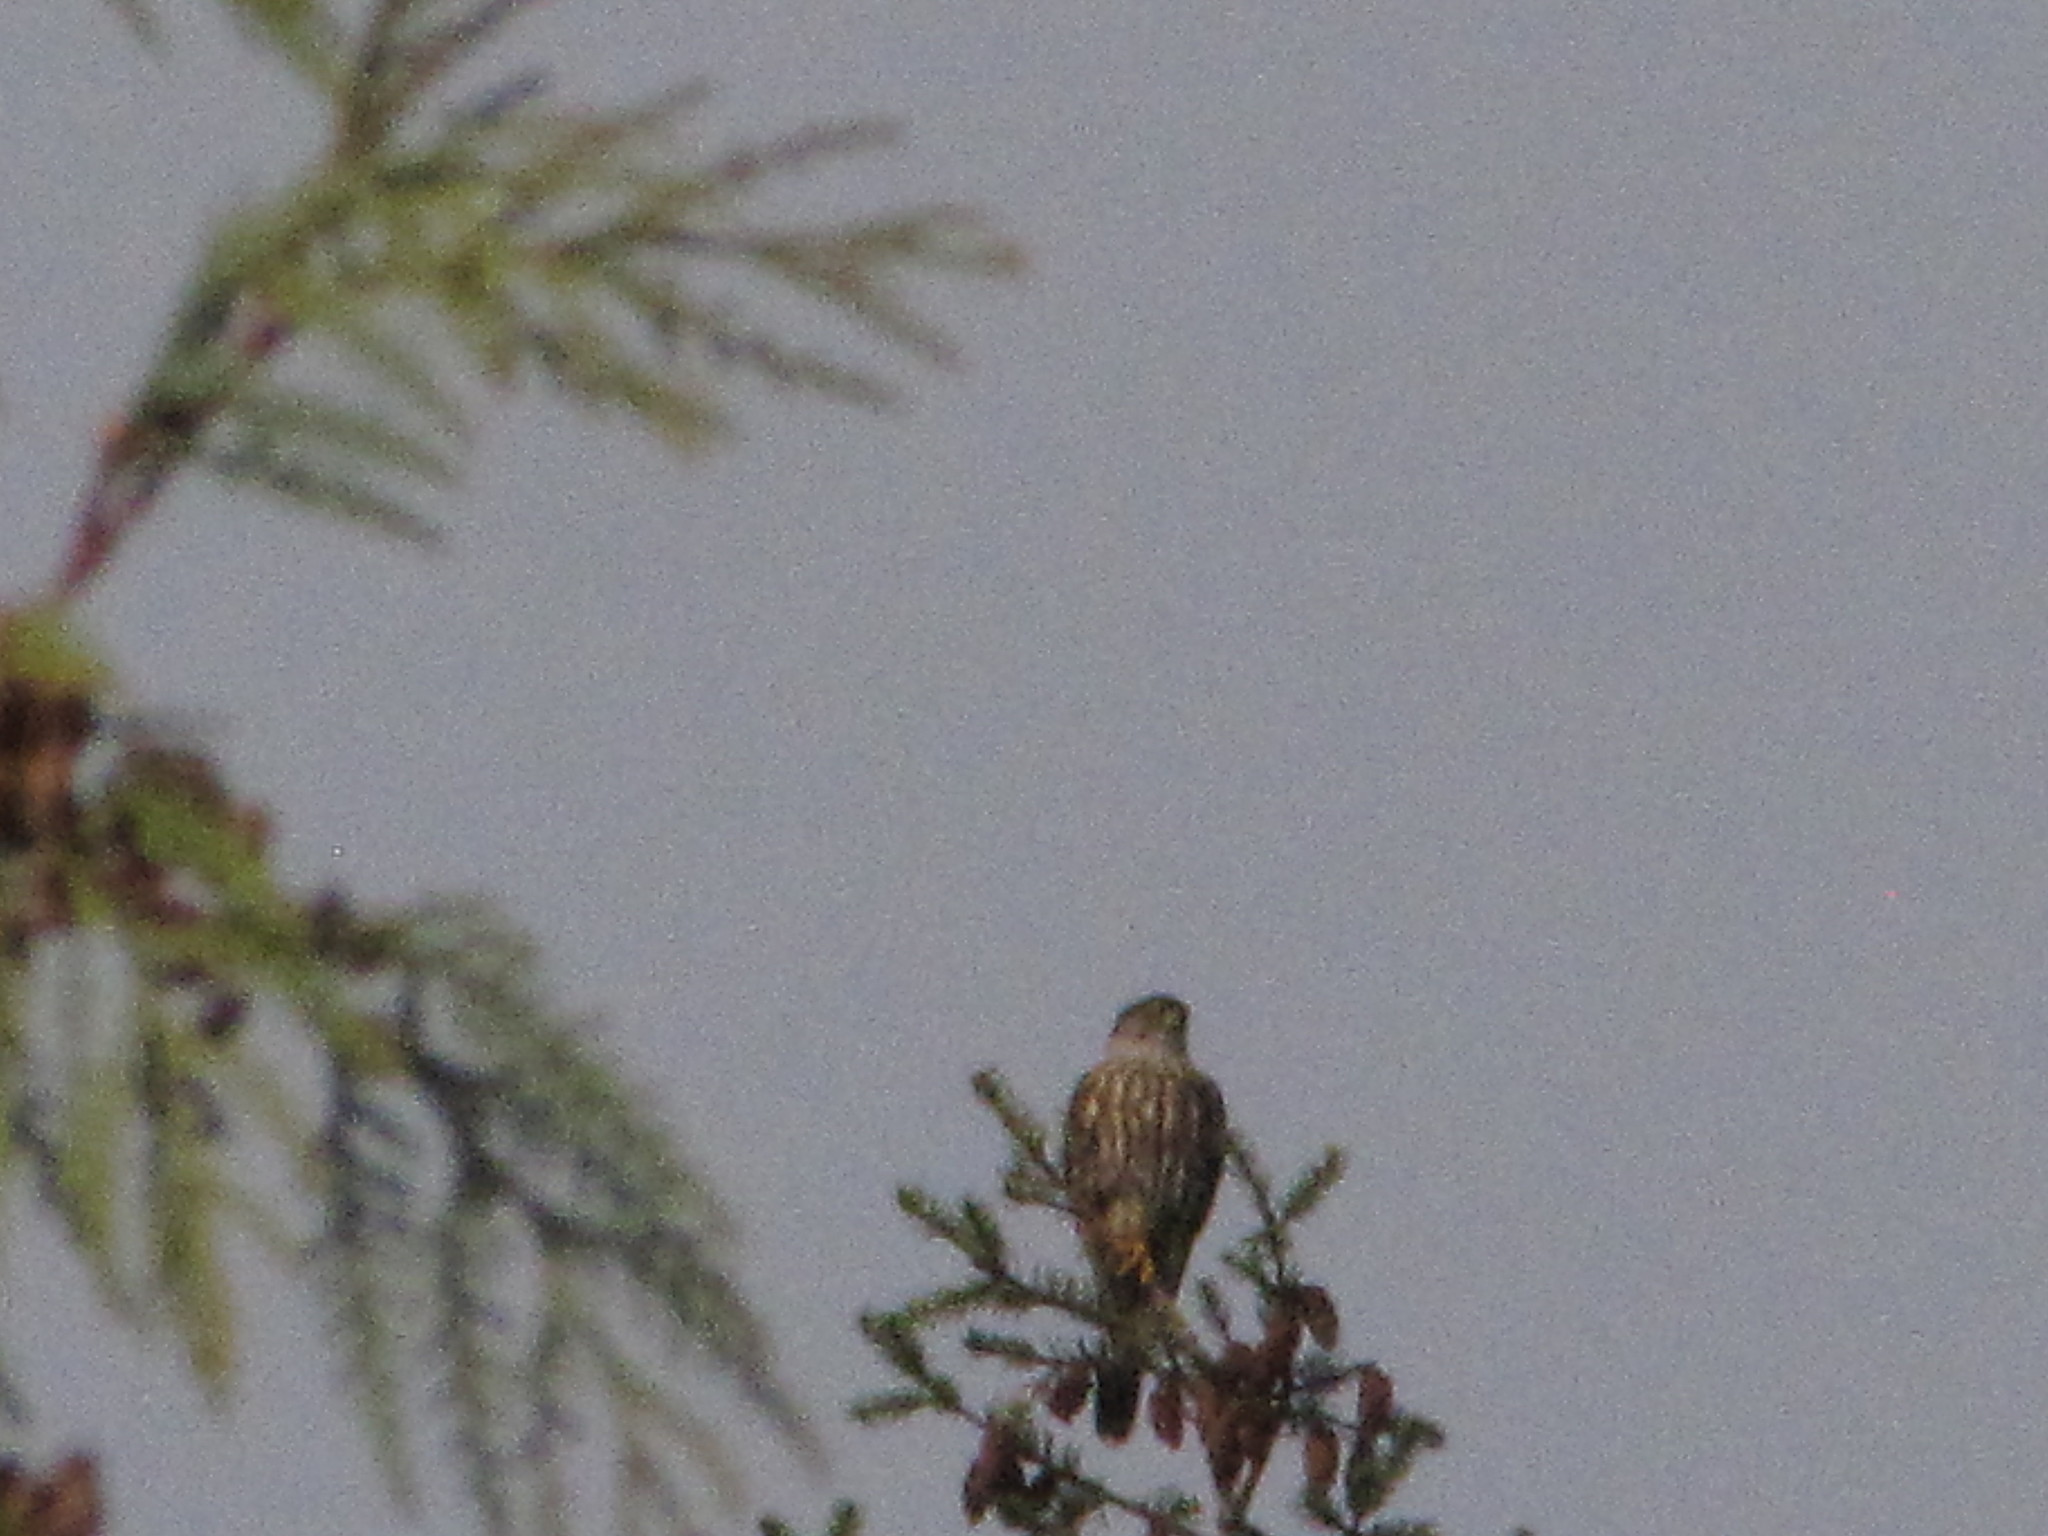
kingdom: Animalia
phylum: Chordata
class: Aves
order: Falconiformes
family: Falconidae
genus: Falco
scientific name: Falco columbarius
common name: Merlin
